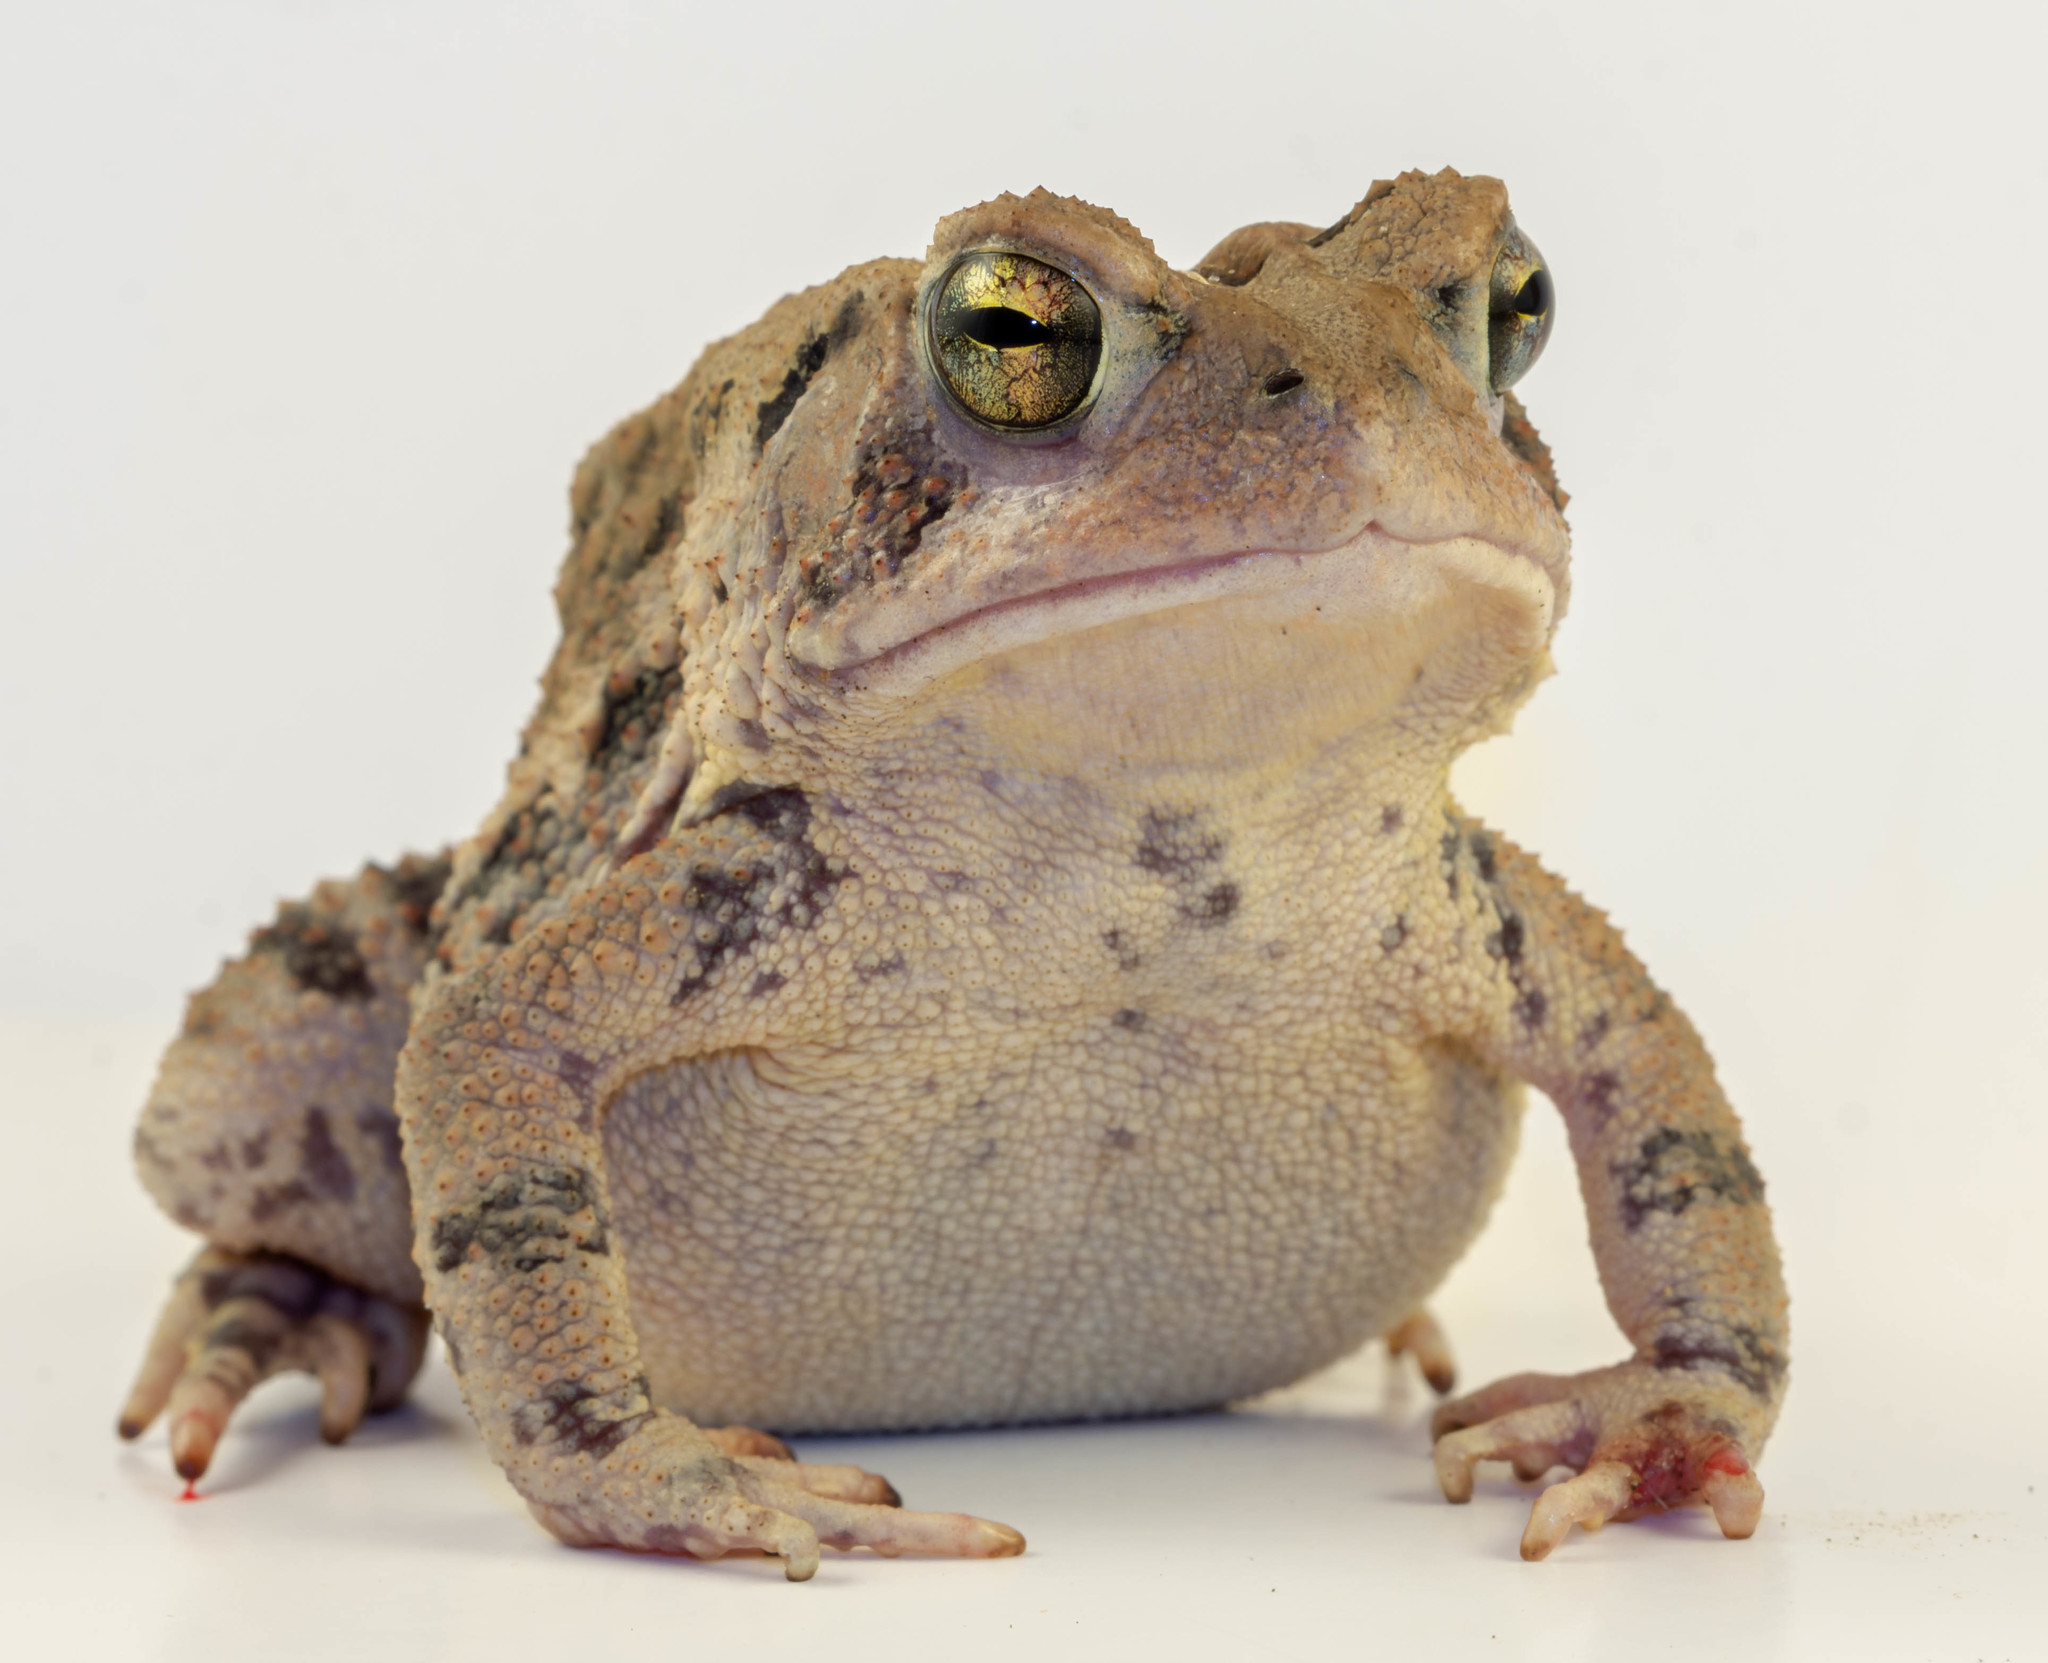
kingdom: Animalia
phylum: Chordata
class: Amphibia
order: Anura
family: Bufonidae
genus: Anaxyrus
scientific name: Anaxyrus fowleri
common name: Fowler's toad
